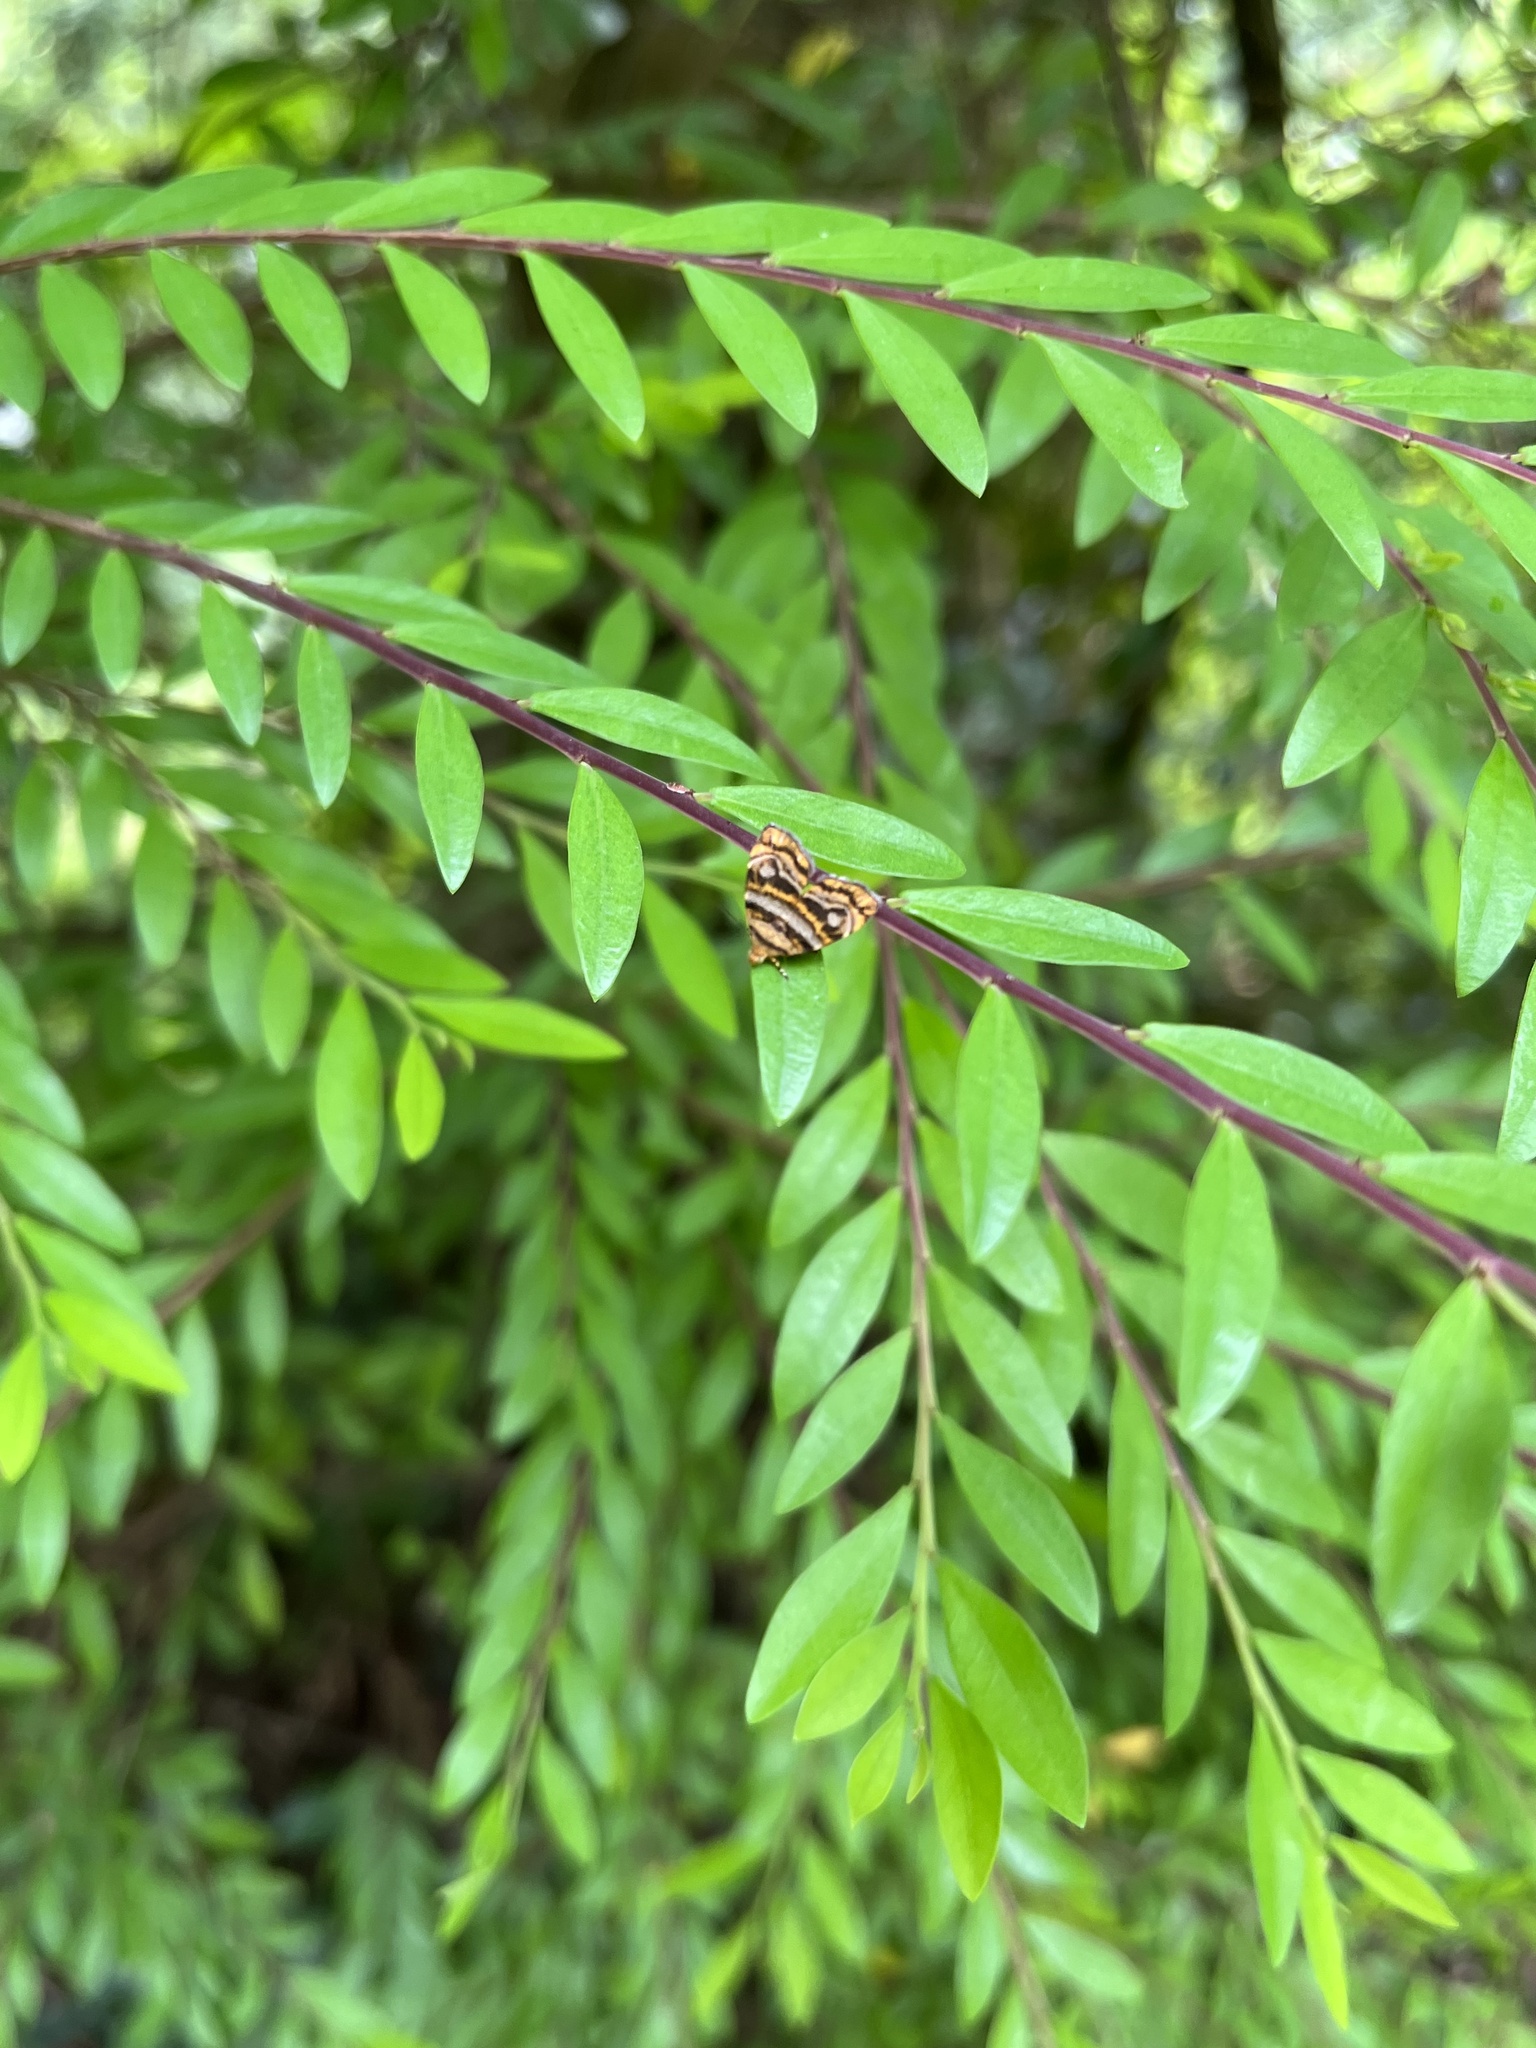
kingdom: Animalia
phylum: Arthropoda
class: Insecta
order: Lepidoptera
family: Choreutidae
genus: Anthophila
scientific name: Anthophila amethystodes
